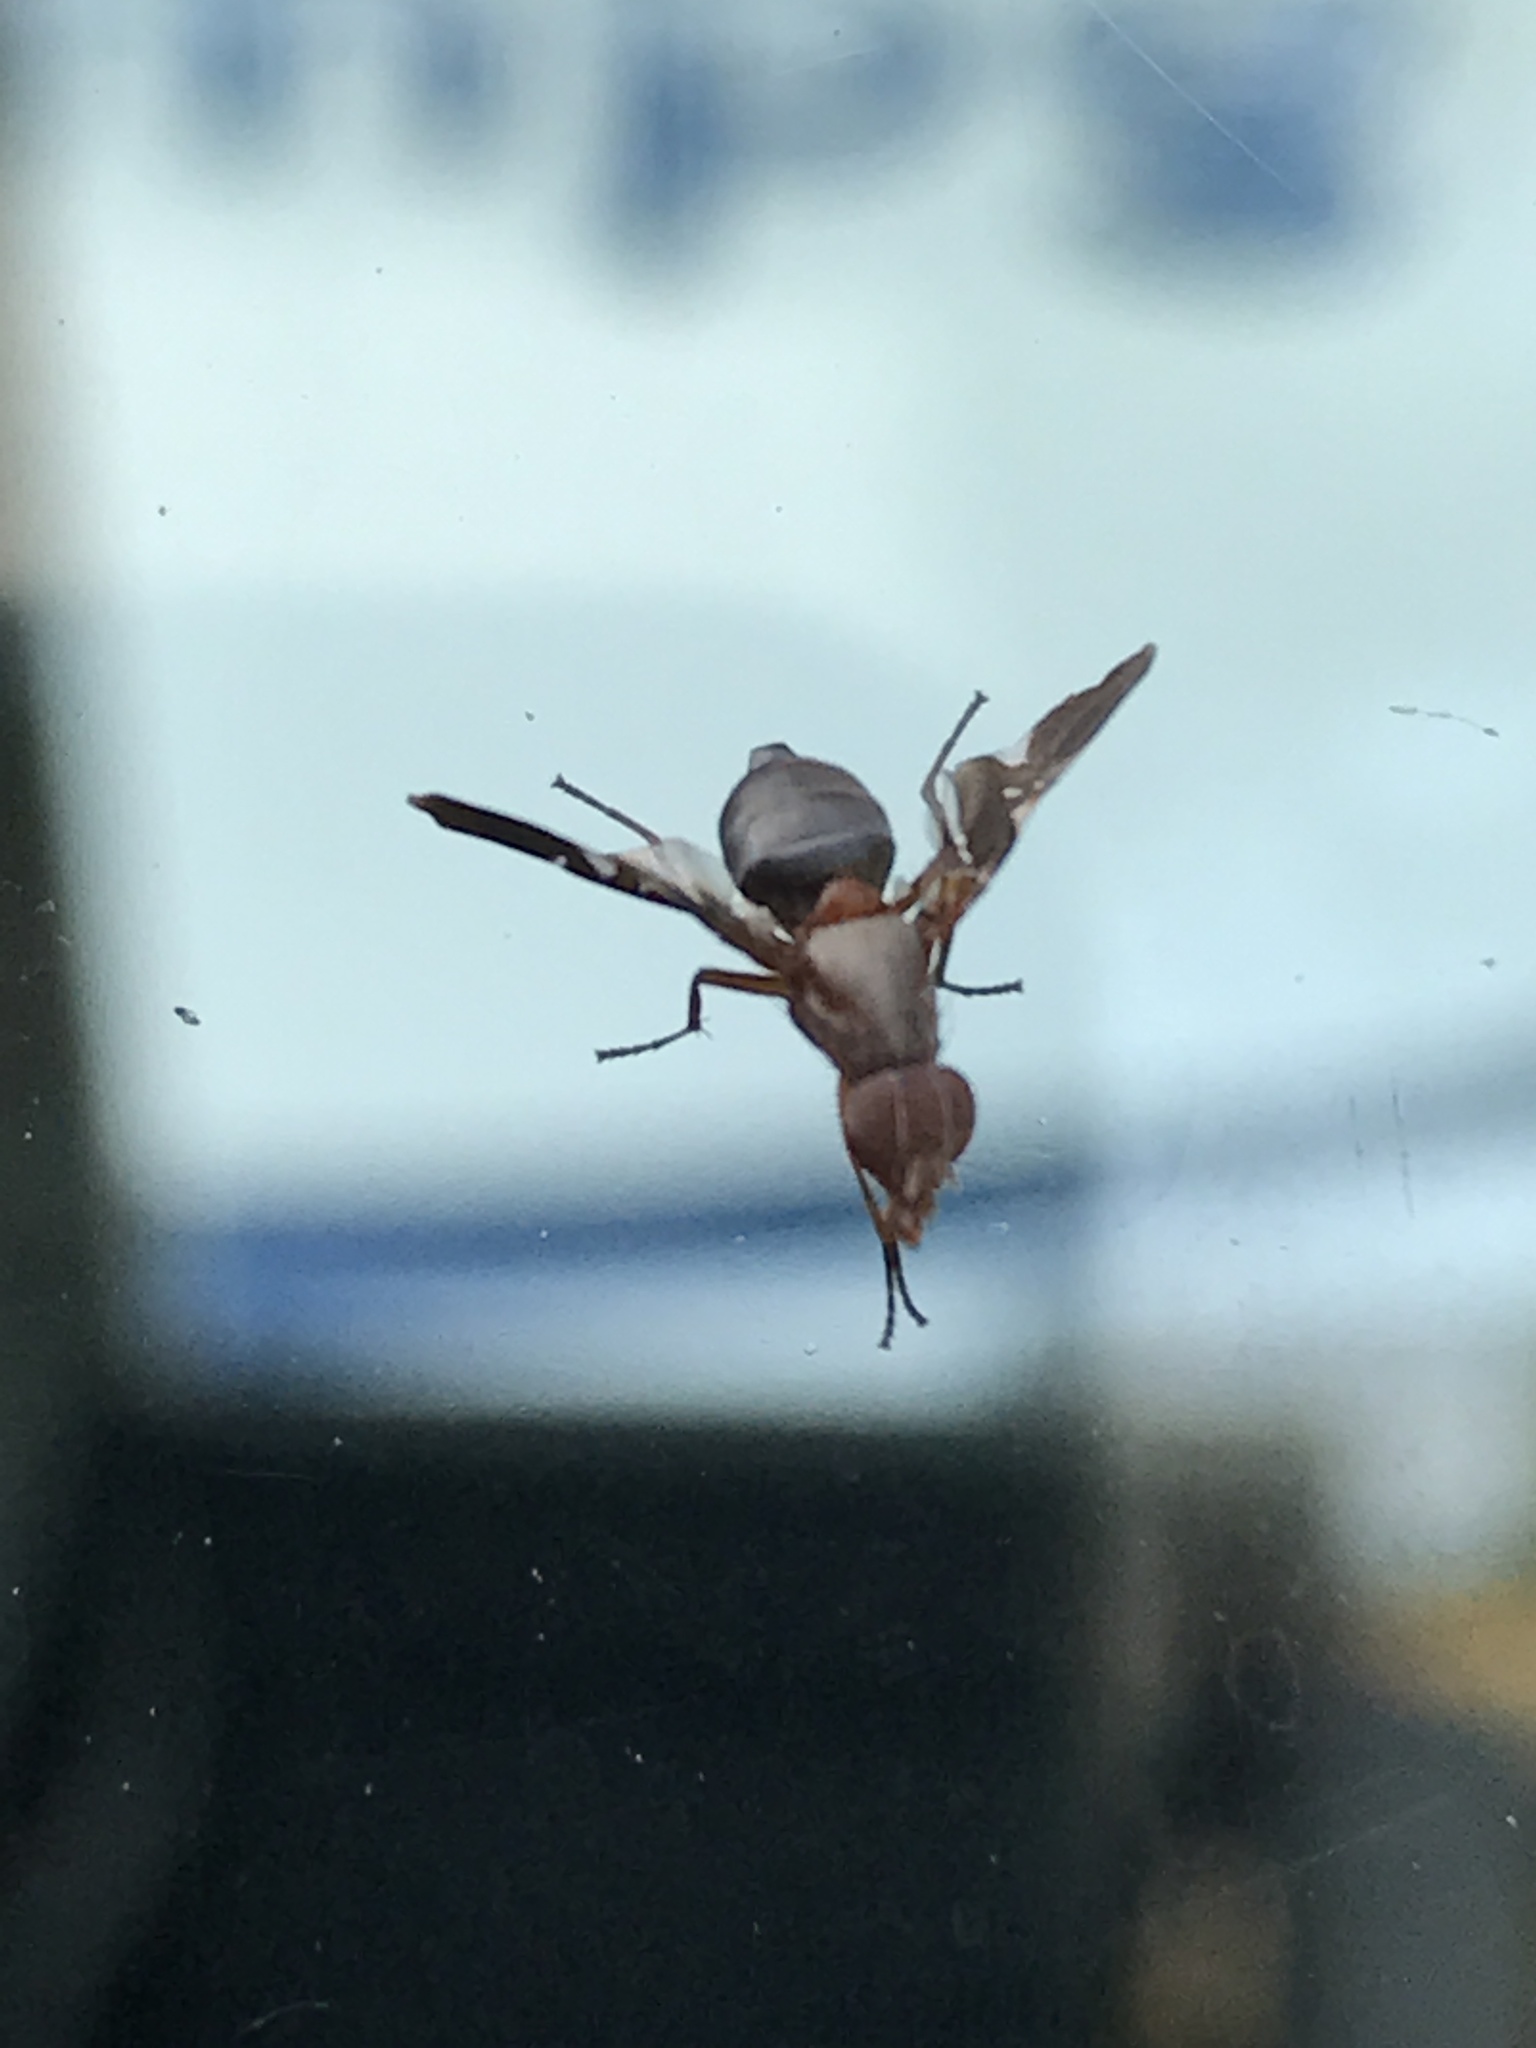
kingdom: Animalia
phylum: Arthropoda
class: Insecta
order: Diptera
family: Ulidiidae
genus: Delphinia
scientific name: Delphinia picta
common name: Common picture-winged fly
